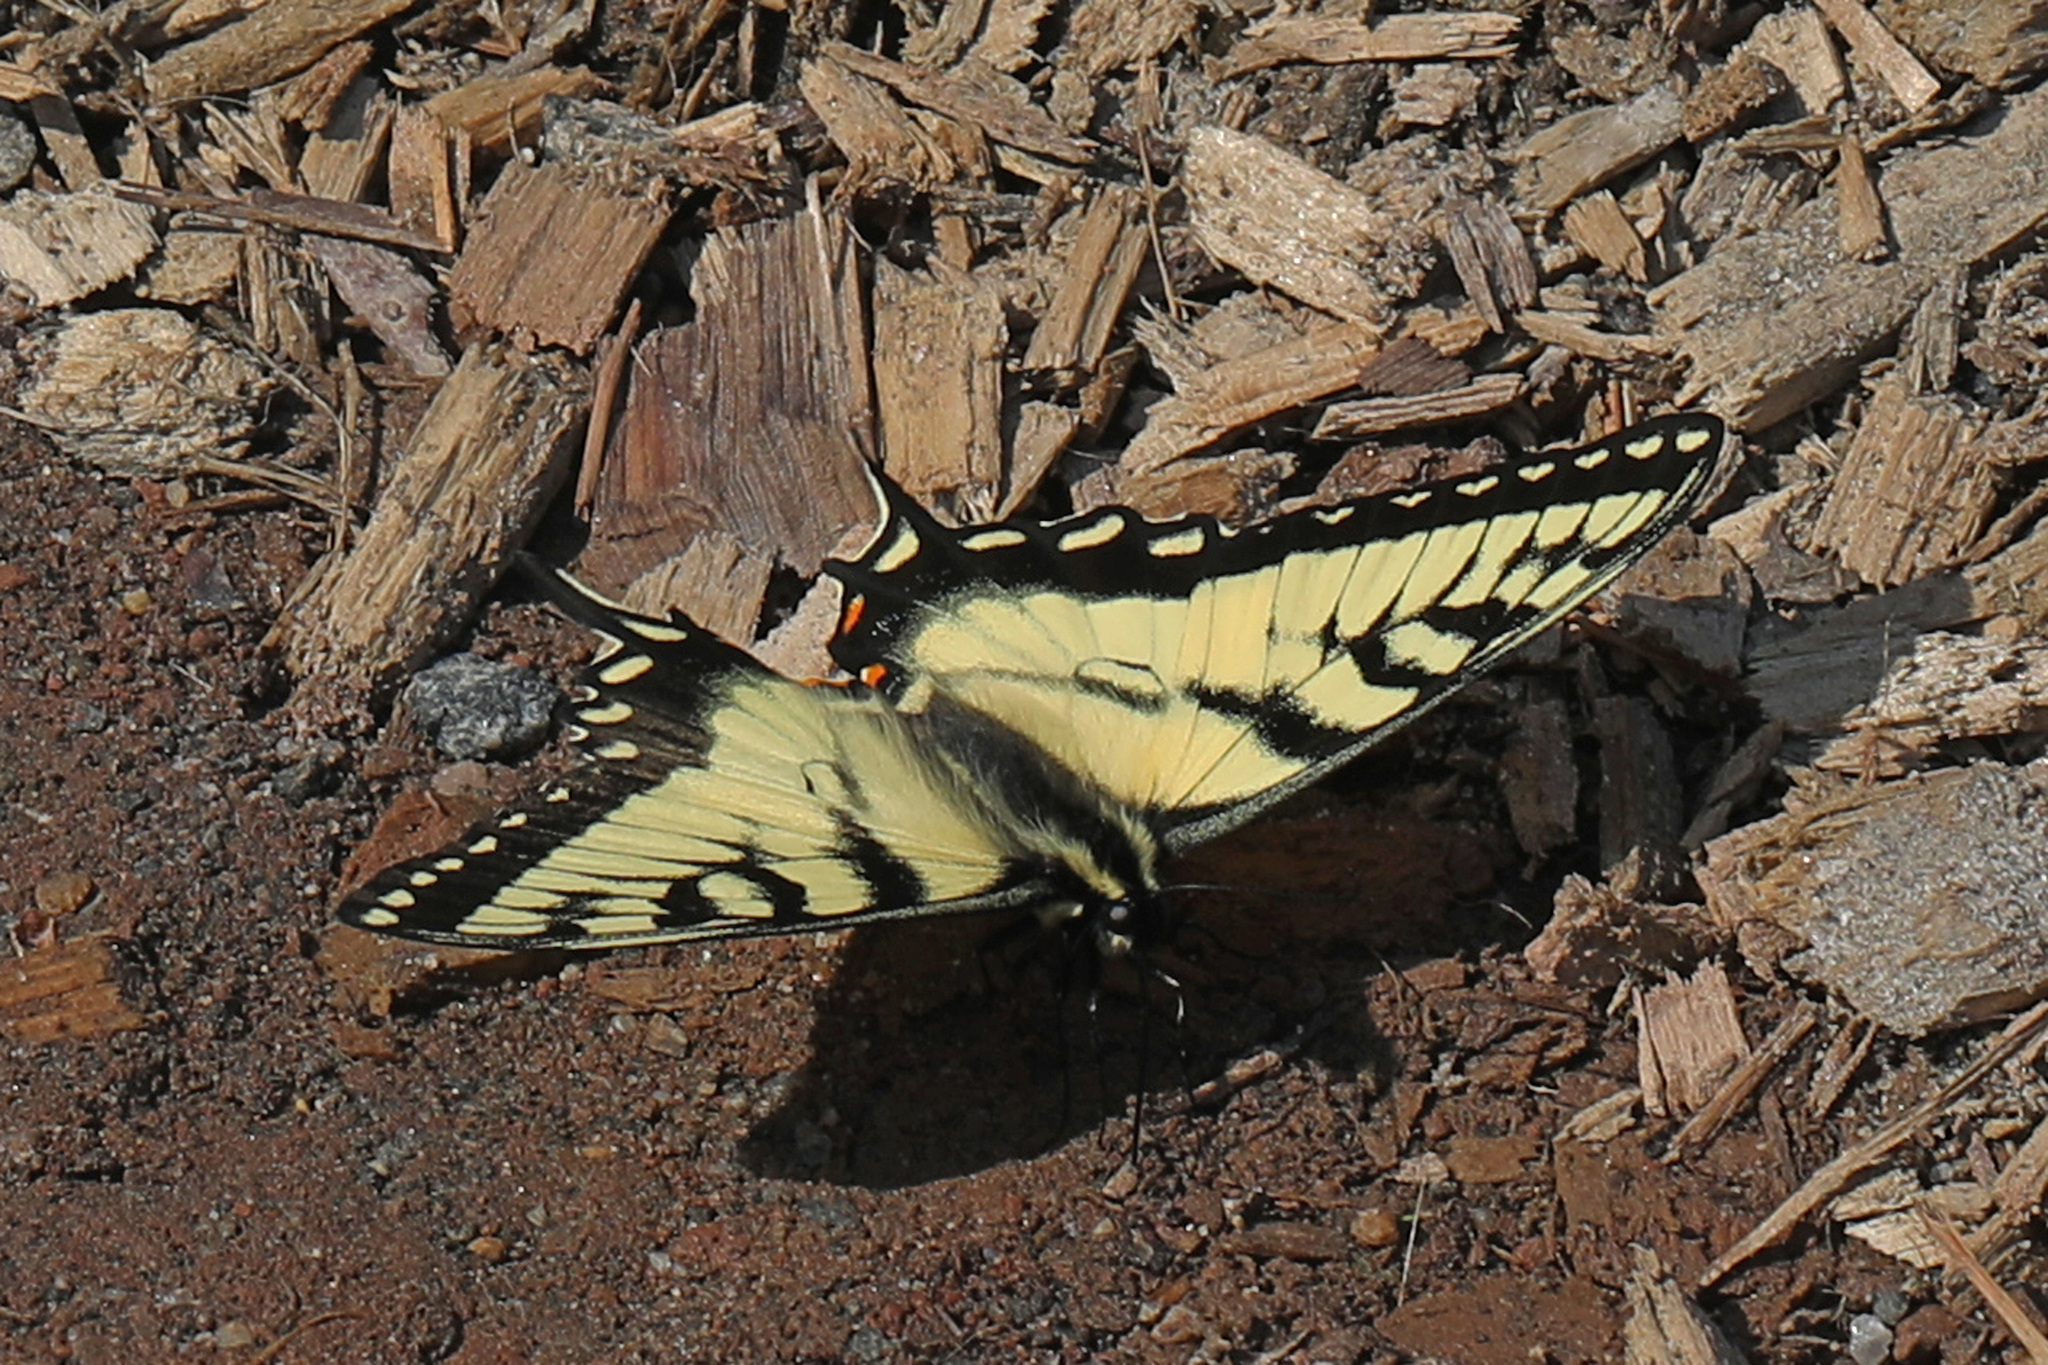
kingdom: Animalia
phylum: Arthropoda
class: Insecta
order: Lepidoptera
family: Papilionidae
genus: Papilio
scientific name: Papilio glaucus
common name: Tiger swallowtail
